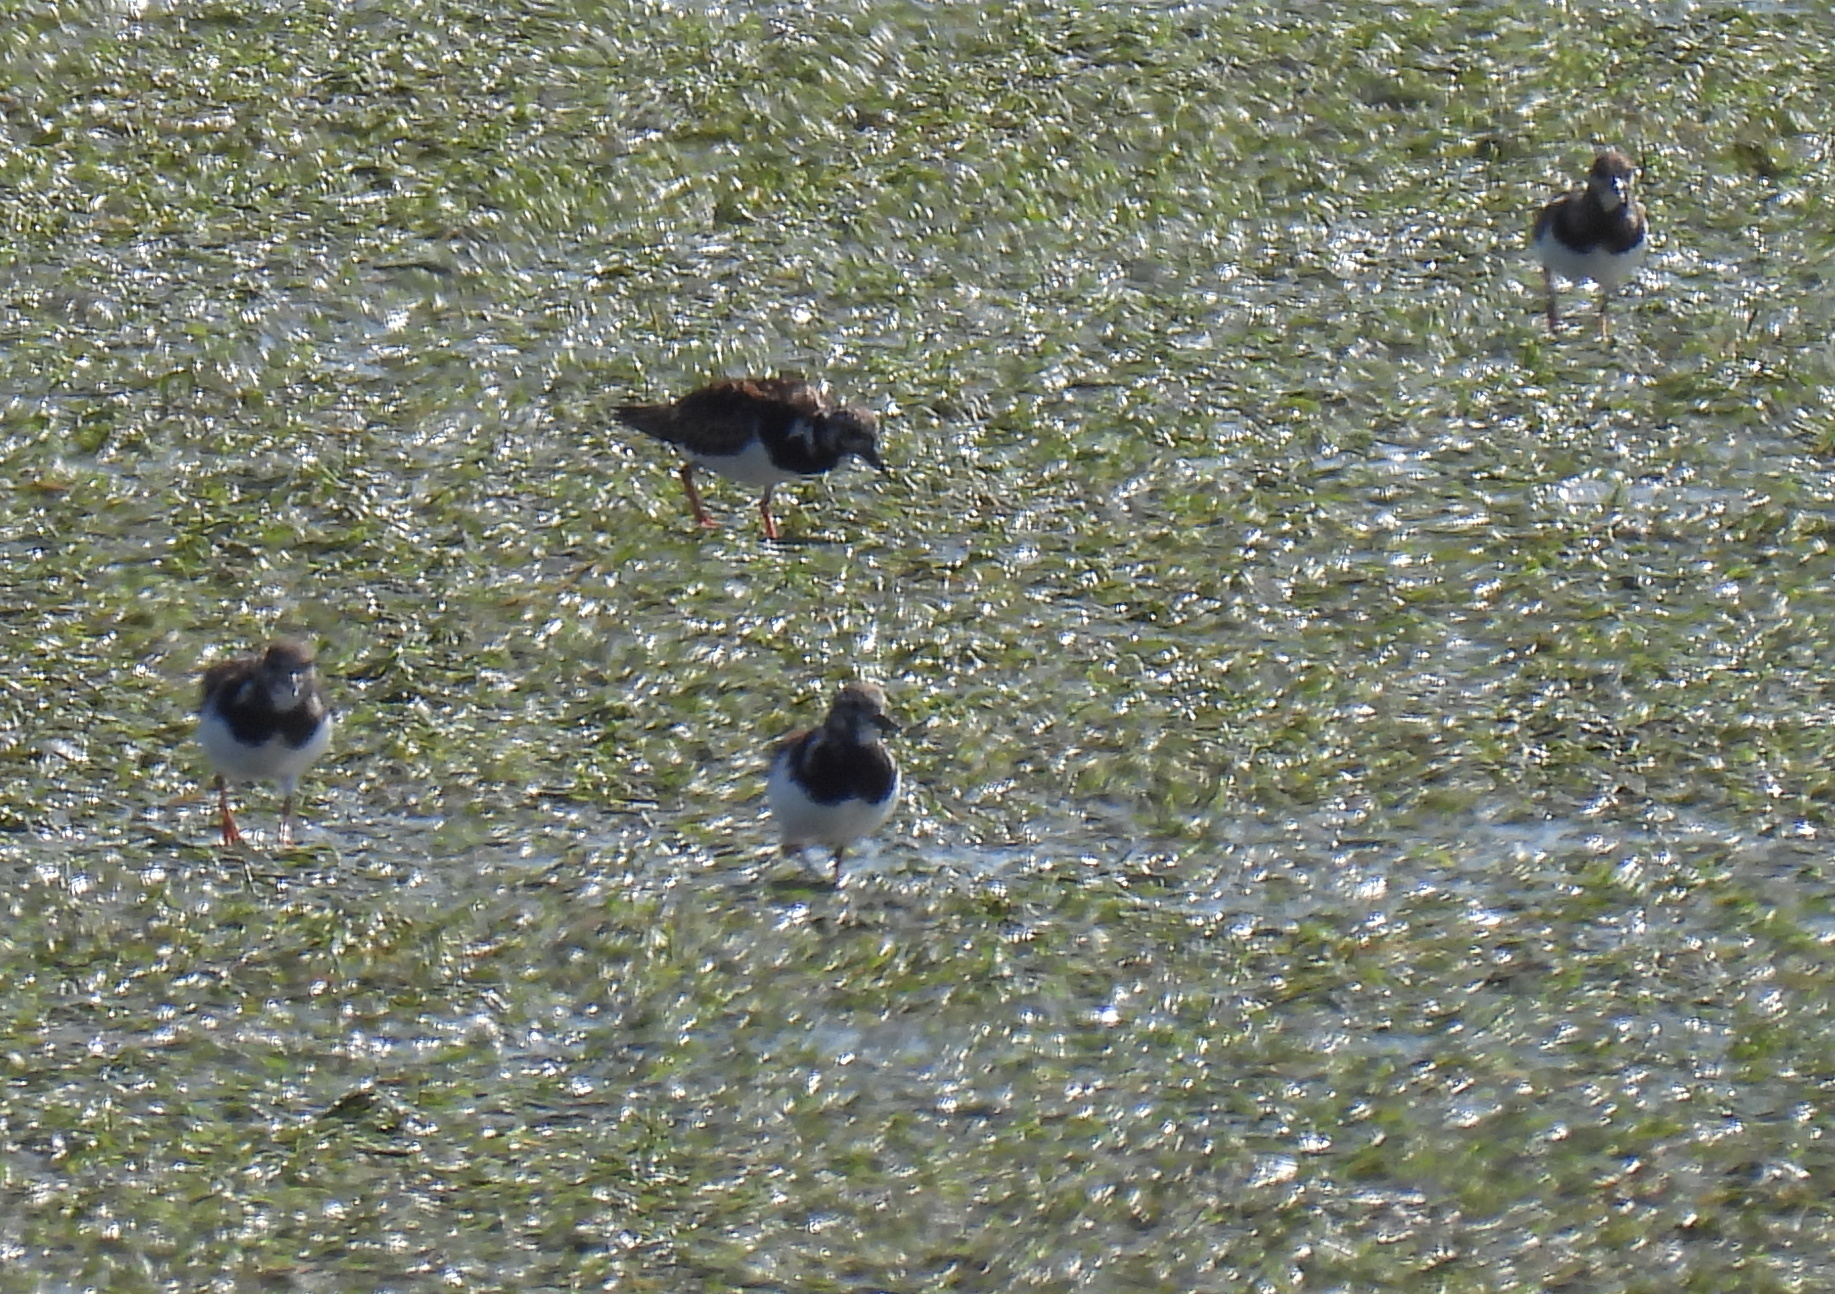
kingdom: Animalia
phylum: Chordata
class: Aves
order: Charadriiformes
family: Scolopacidae
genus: Arenaria
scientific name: Arenaria interpres
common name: Ruddy turnstone
